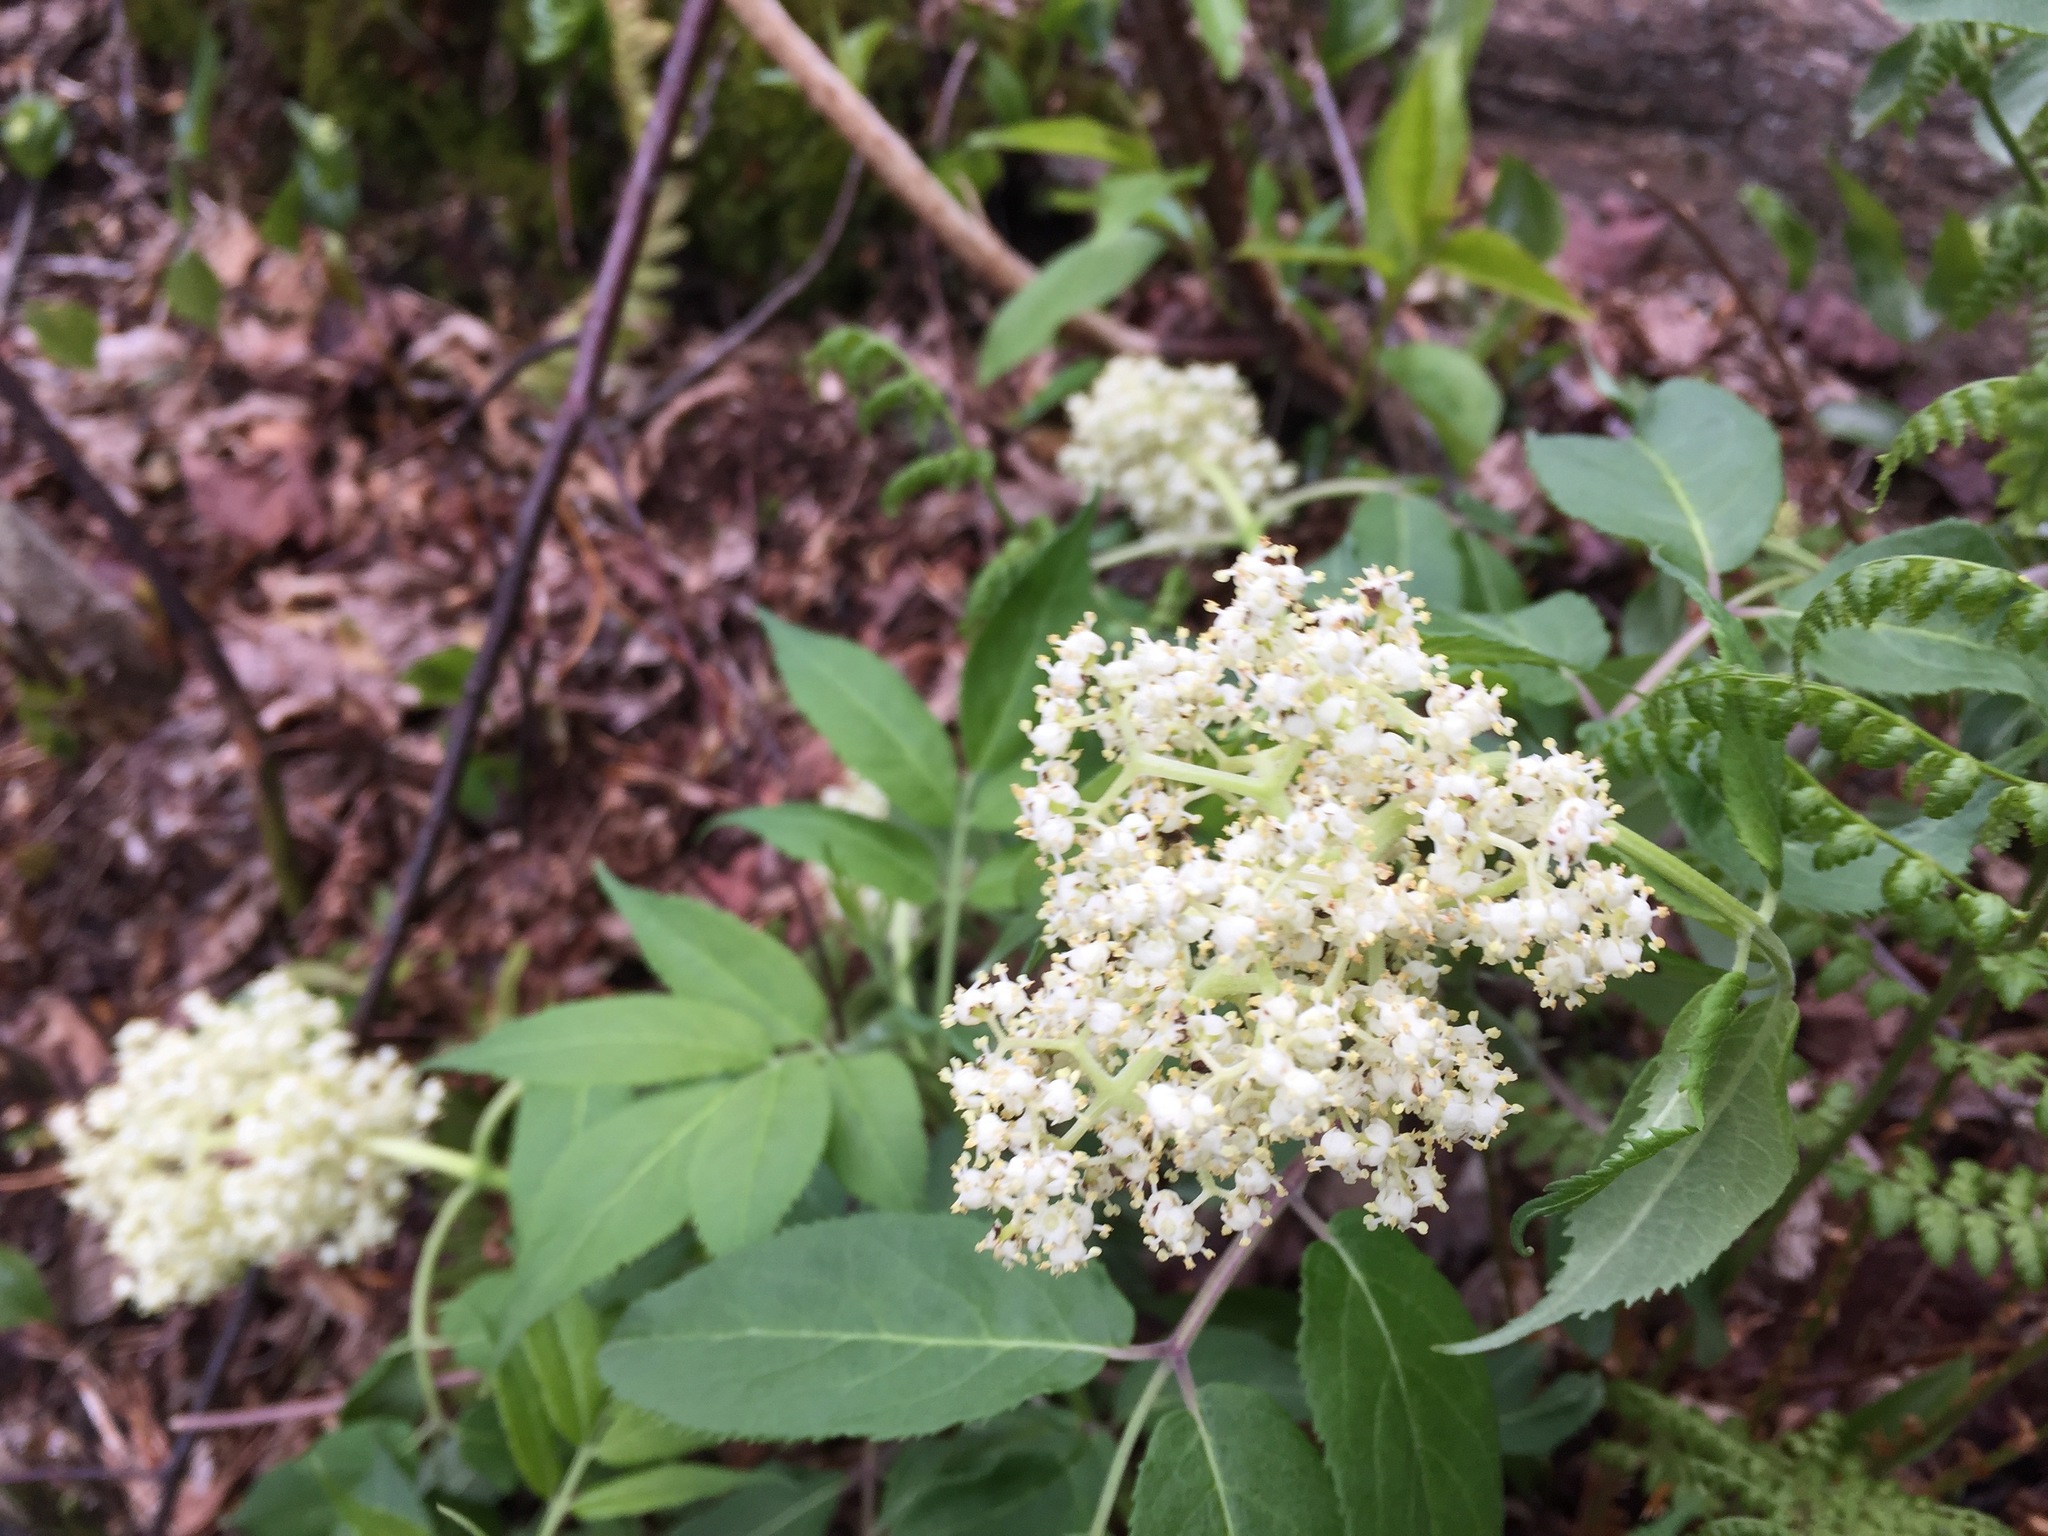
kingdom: Plantae
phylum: Tracheophyta
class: Magnoliopsida
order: Dipsacales
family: Viburnaceae
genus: Sambucus
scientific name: Sambucus racemosa
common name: Red-berried elder
